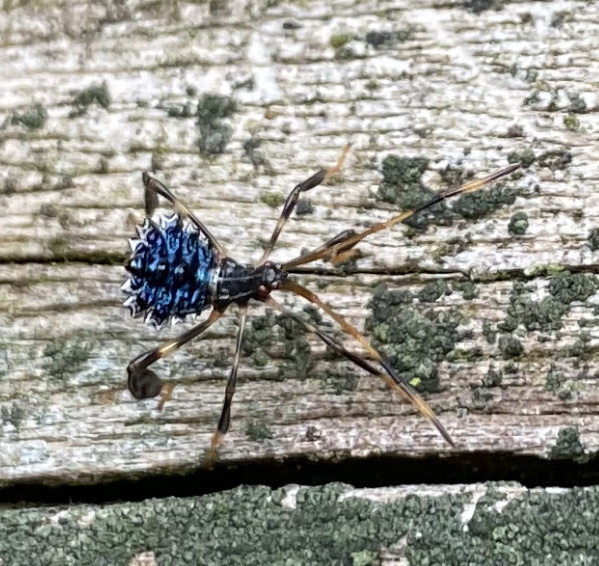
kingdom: Animalia
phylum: Arthropoda
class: Insecta
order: Hemiptera
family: Coreidae
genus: Acanthocephala
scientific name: Acanthocephala terminalis
